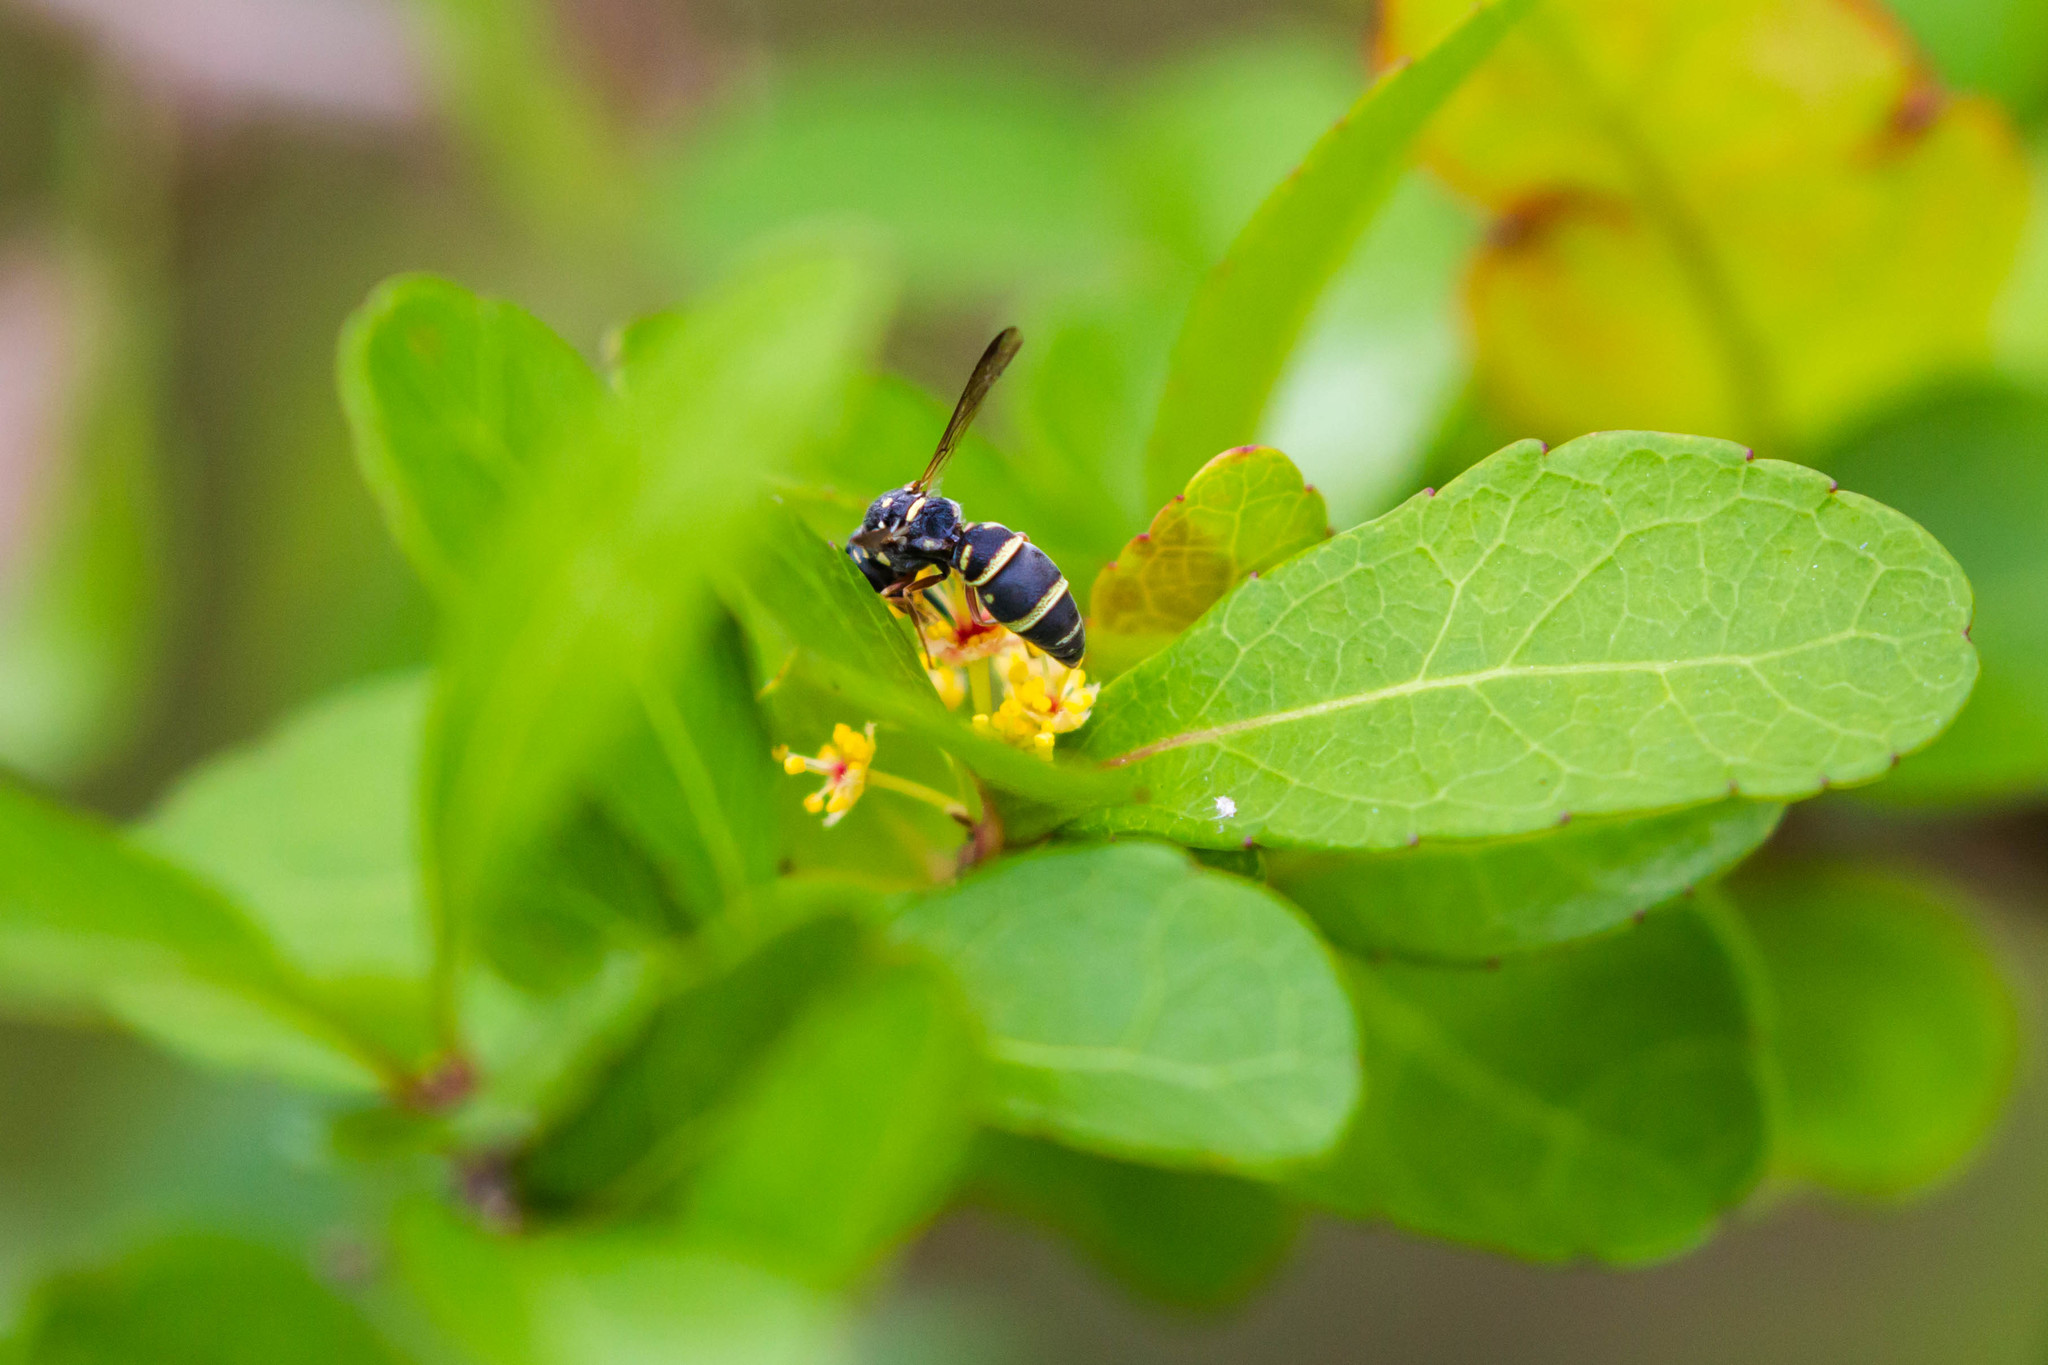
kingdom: Animalia
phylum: Arthropoda
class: Insecta
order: Hymenoptera
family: Eumenidae
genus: Parancistrocerus
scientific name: Parancistrocerus
